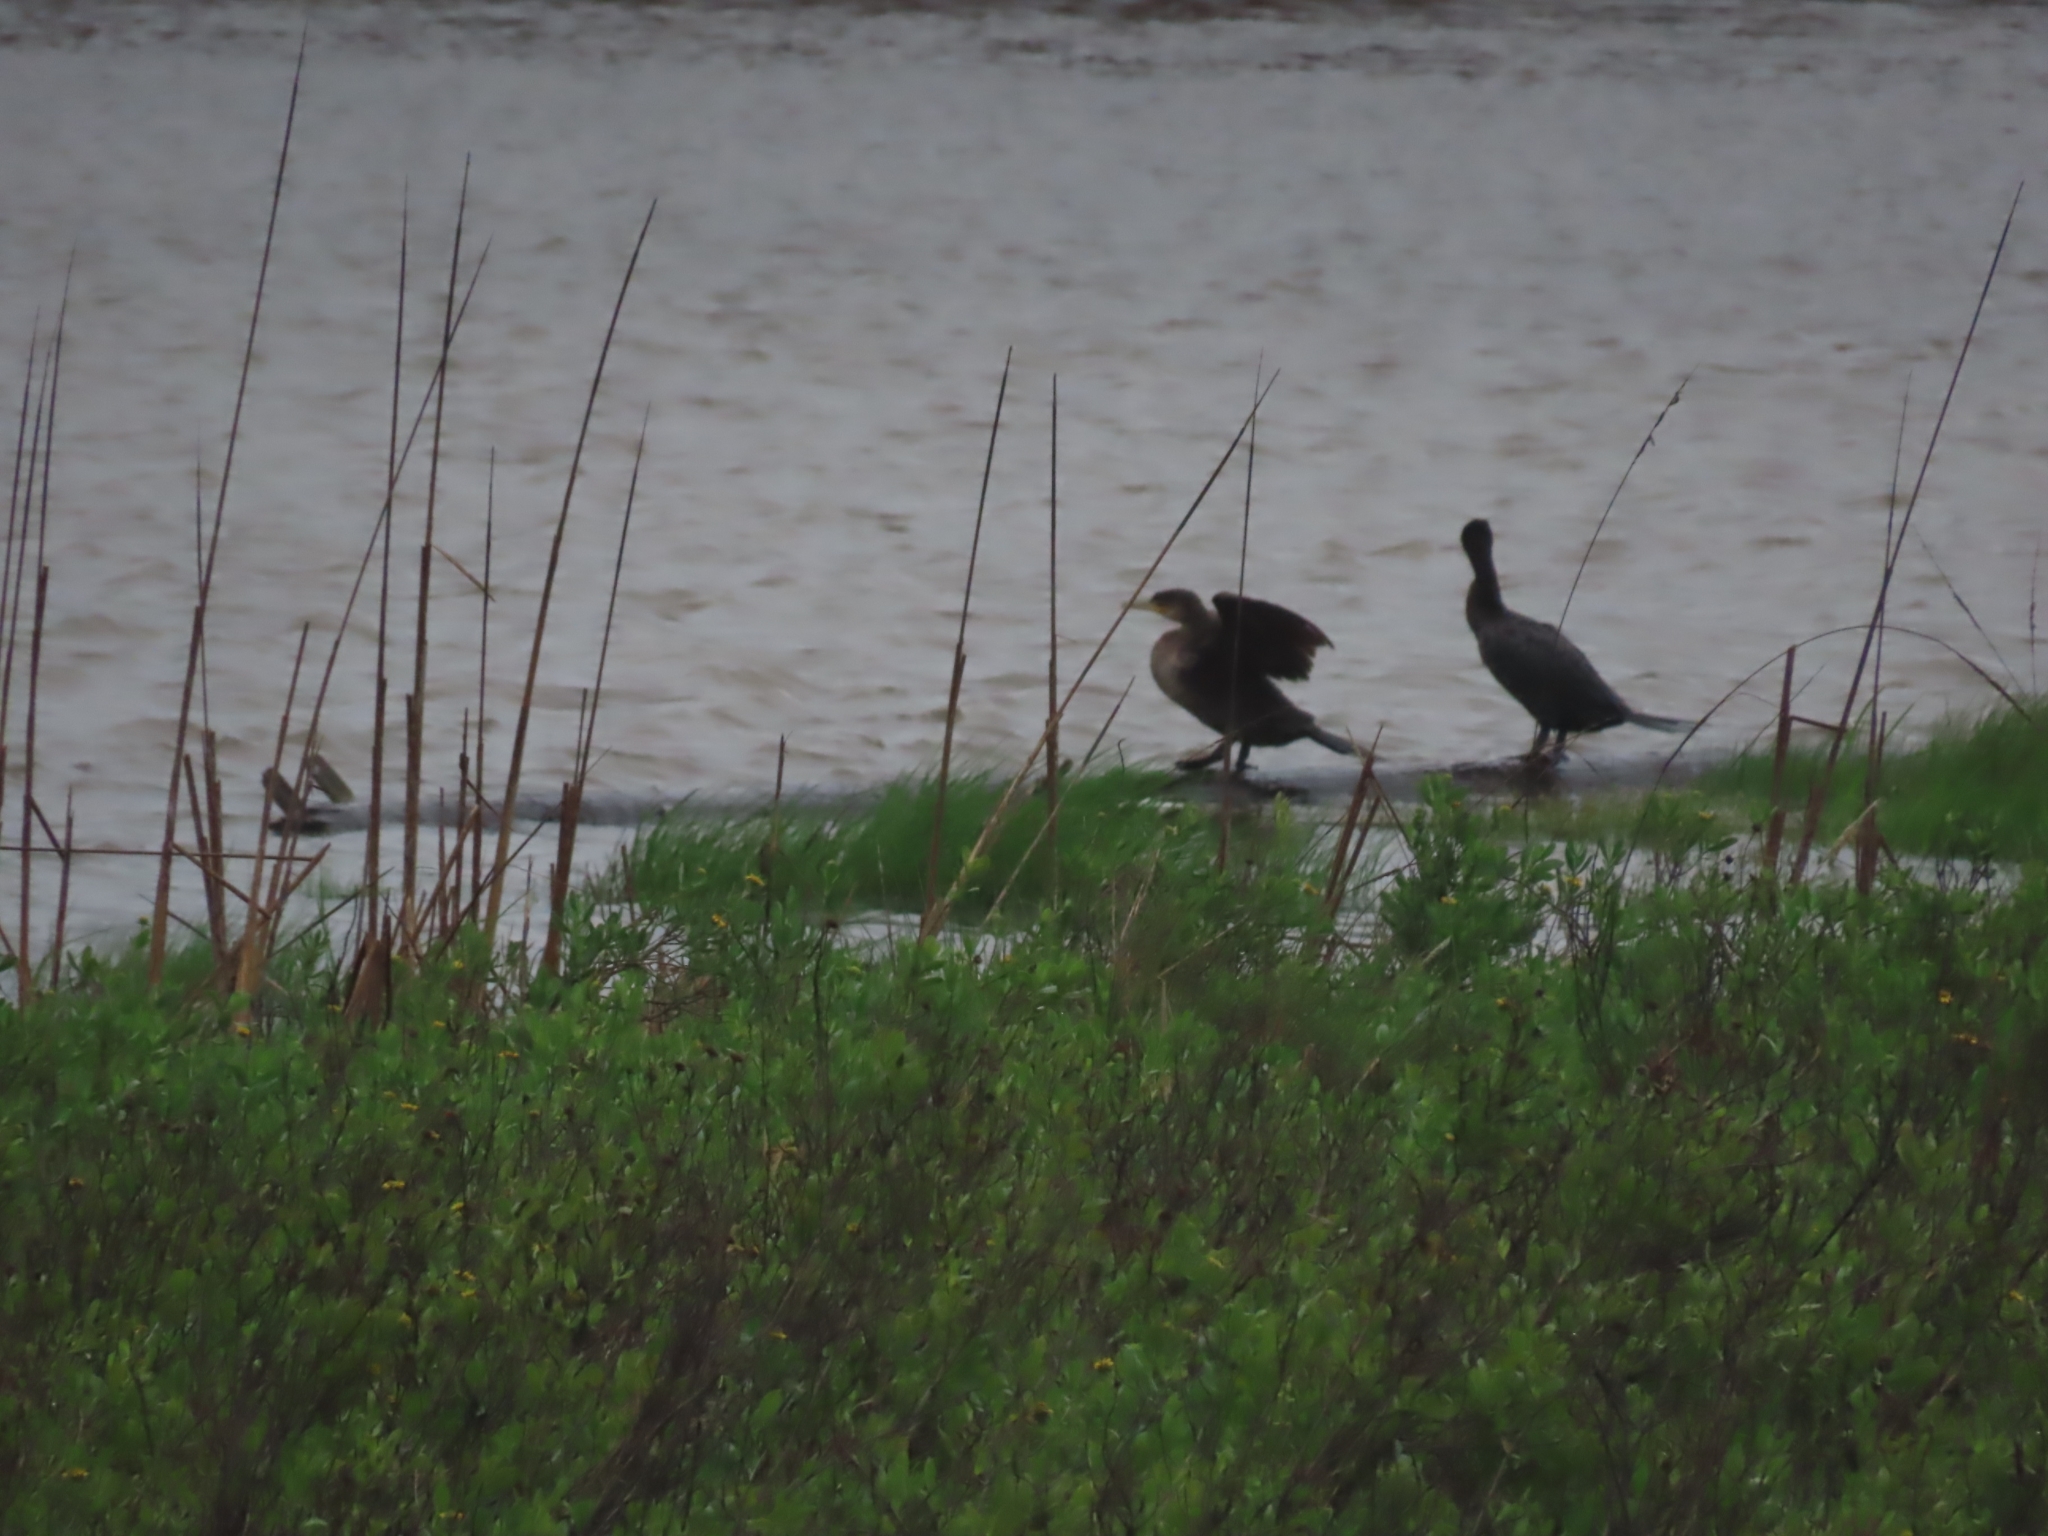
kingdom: Animalia
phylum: Chordata
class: Aves
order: Suliformes
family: Phalacrocoracidae
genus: Phalacrocorax
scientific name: Phalacrocorax brasilianus
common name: Neotropic cormorant
